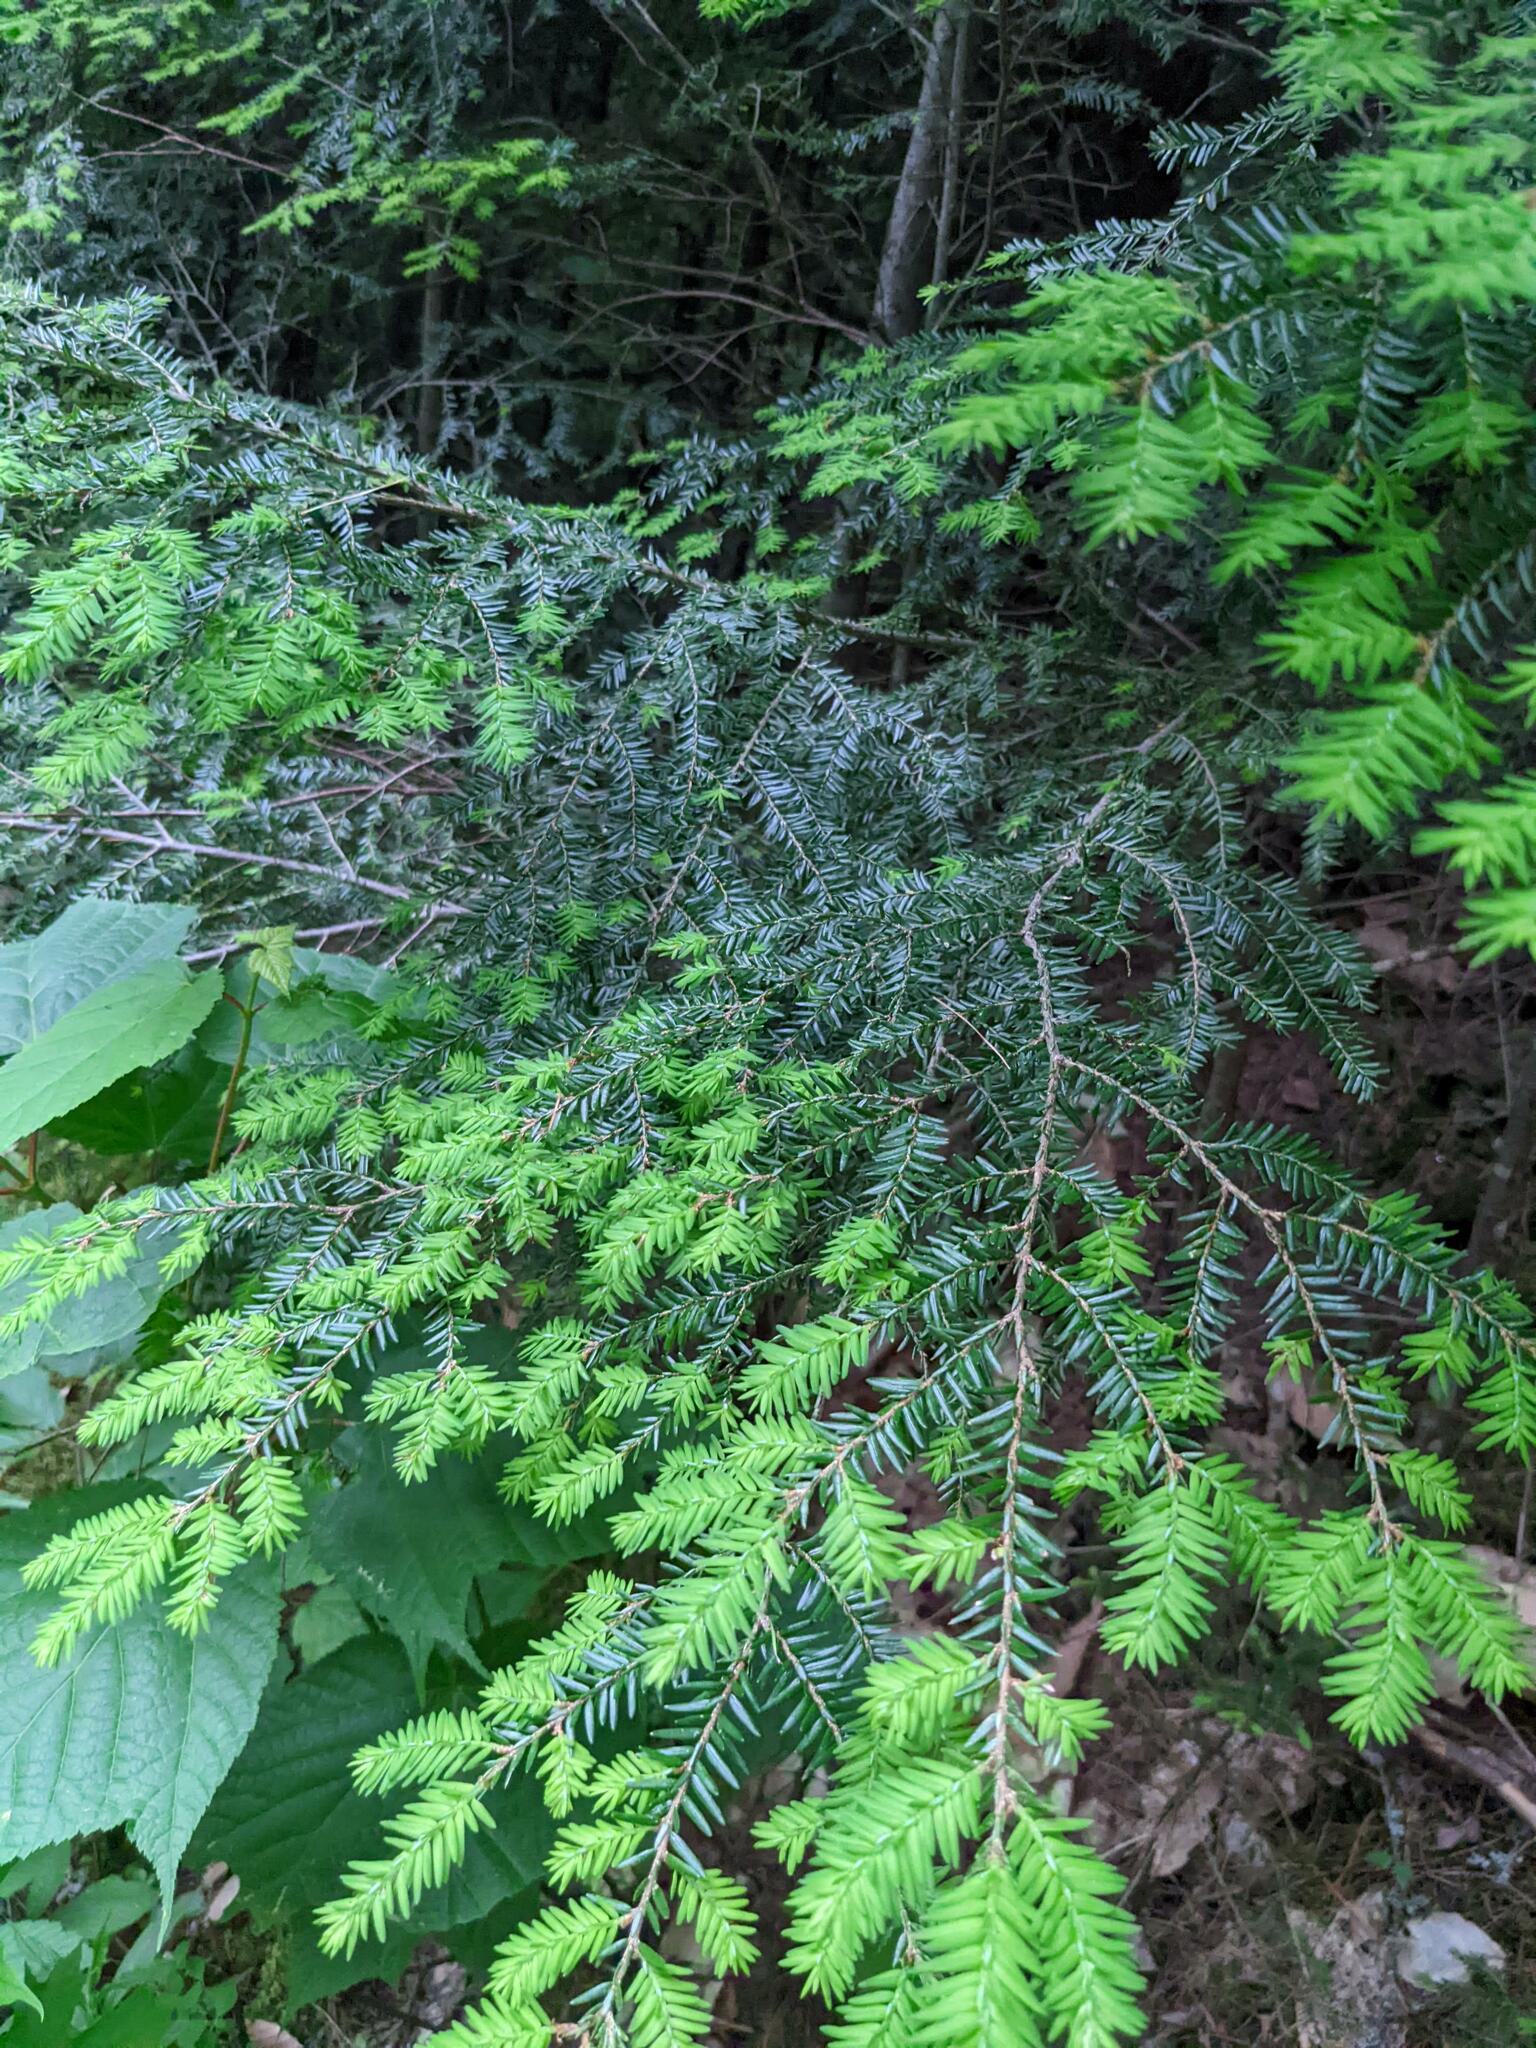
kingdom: Plantae
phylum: Tracheophyta
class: Pinopsida
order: Pinales
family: Pinaceae
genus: Tsuga
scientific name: Tsuga canadensis
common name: Eastern hemlock
